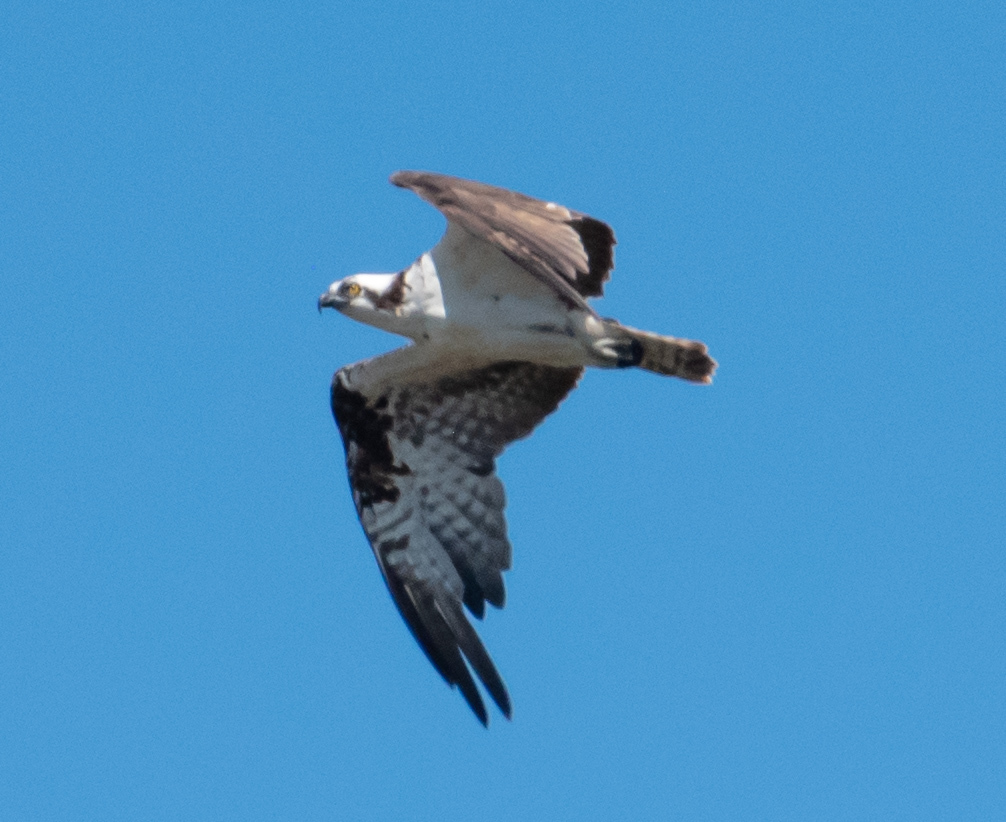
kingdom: Animalia
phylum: Chordata
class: Aves
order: Accipitriformes
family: Pandionidae
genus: Pandion
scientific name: Pandion haliaetus
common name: Osprey
